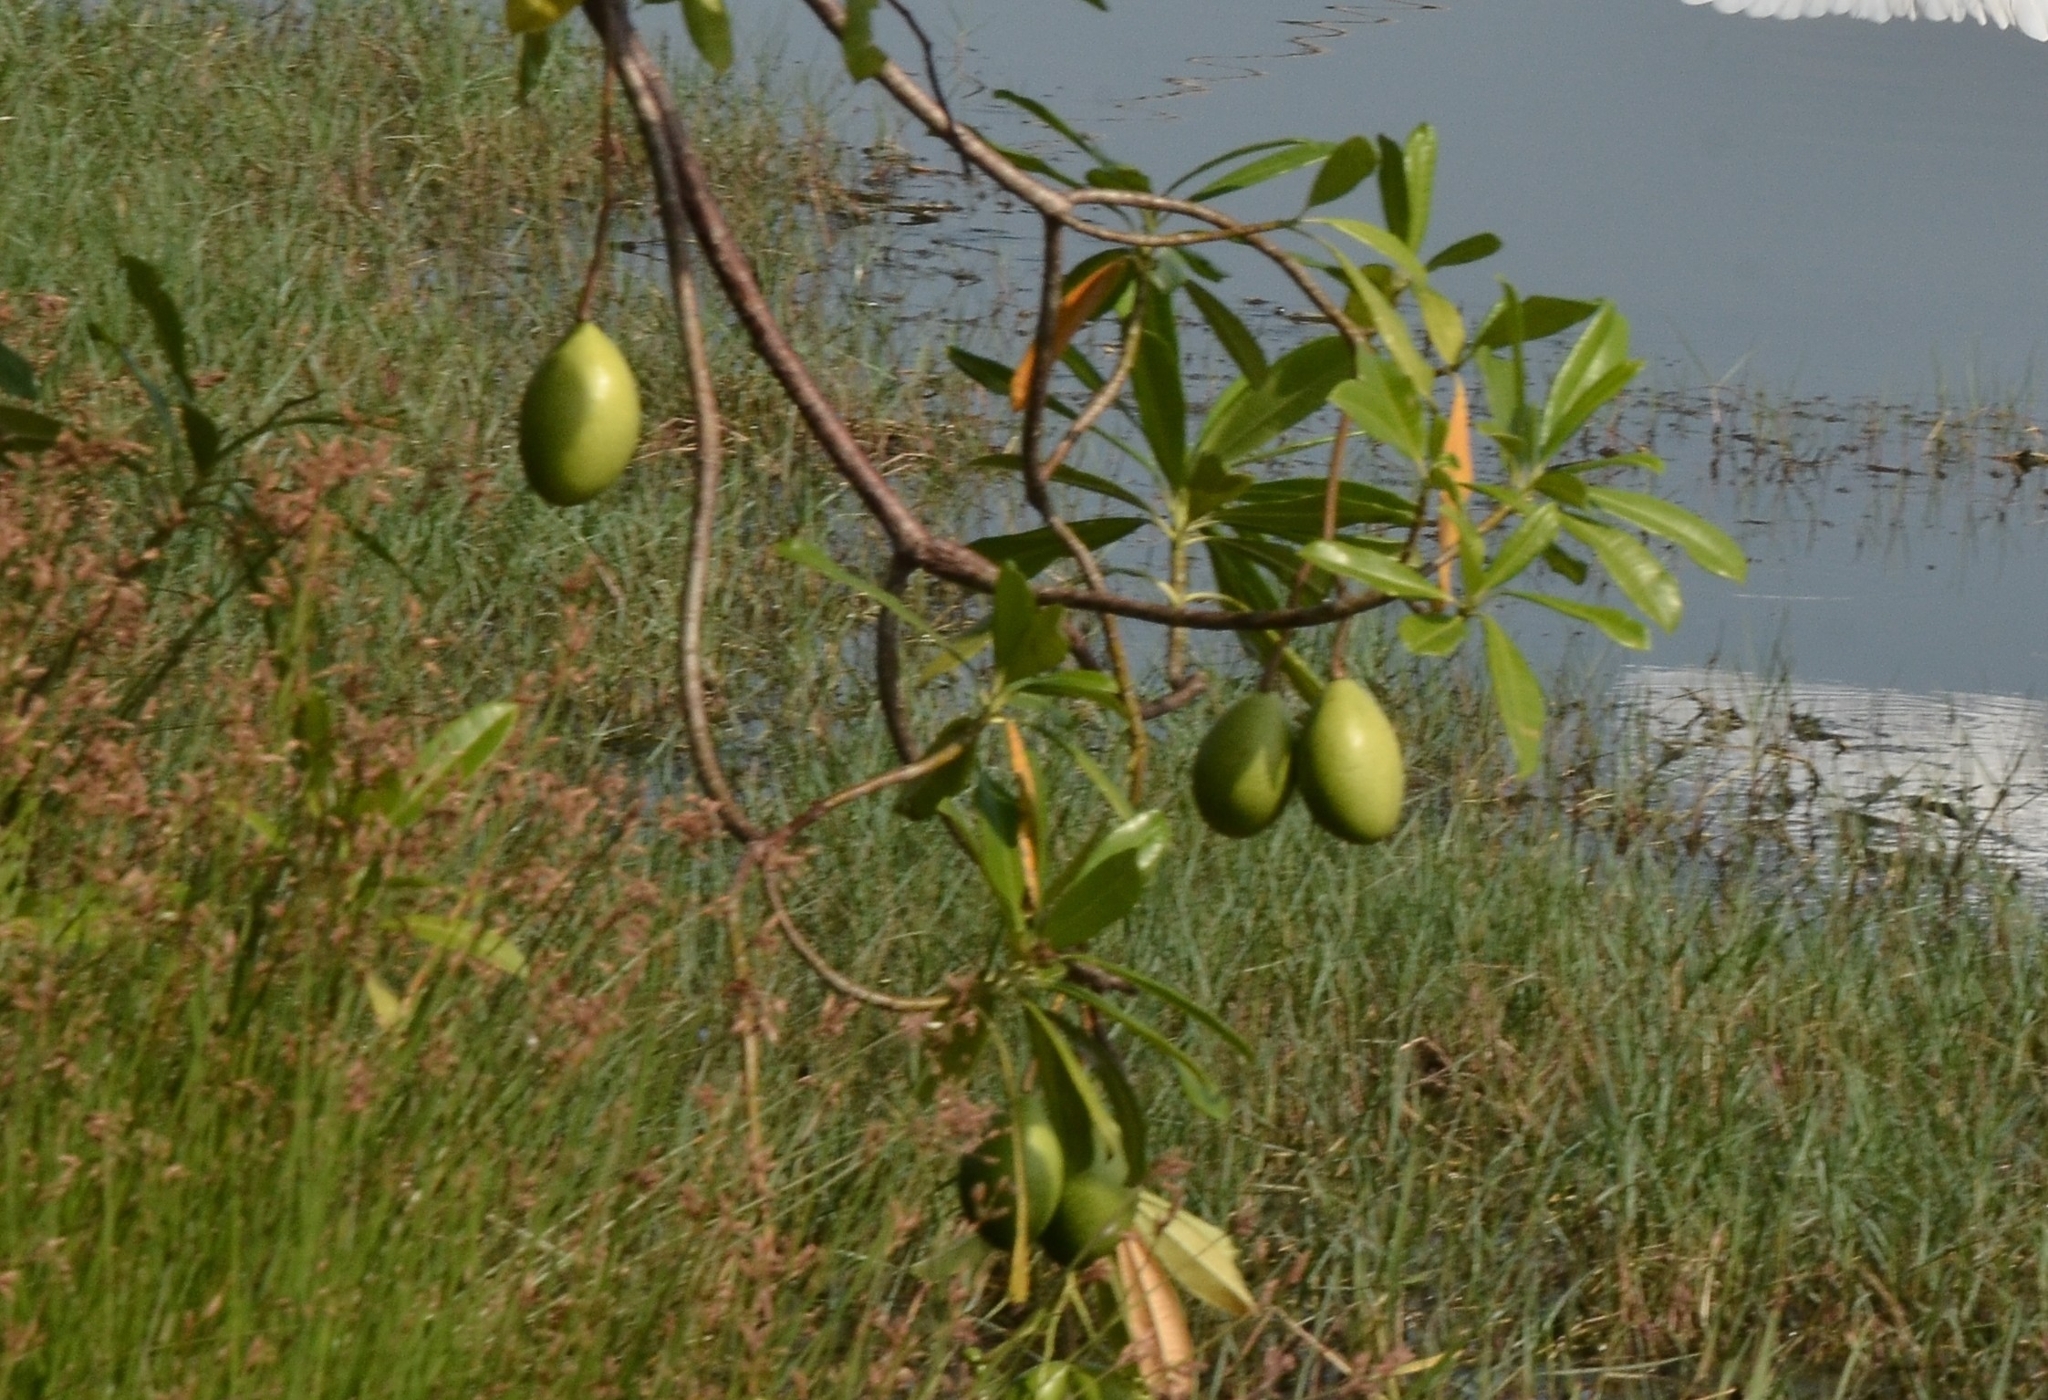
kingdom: Plantae
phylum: Tracheophyta
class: Magnoliopsida
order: Gentianales
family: Apocynaceae
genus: Cerbera
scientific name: Cerbera odollam
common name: Pong-pong
